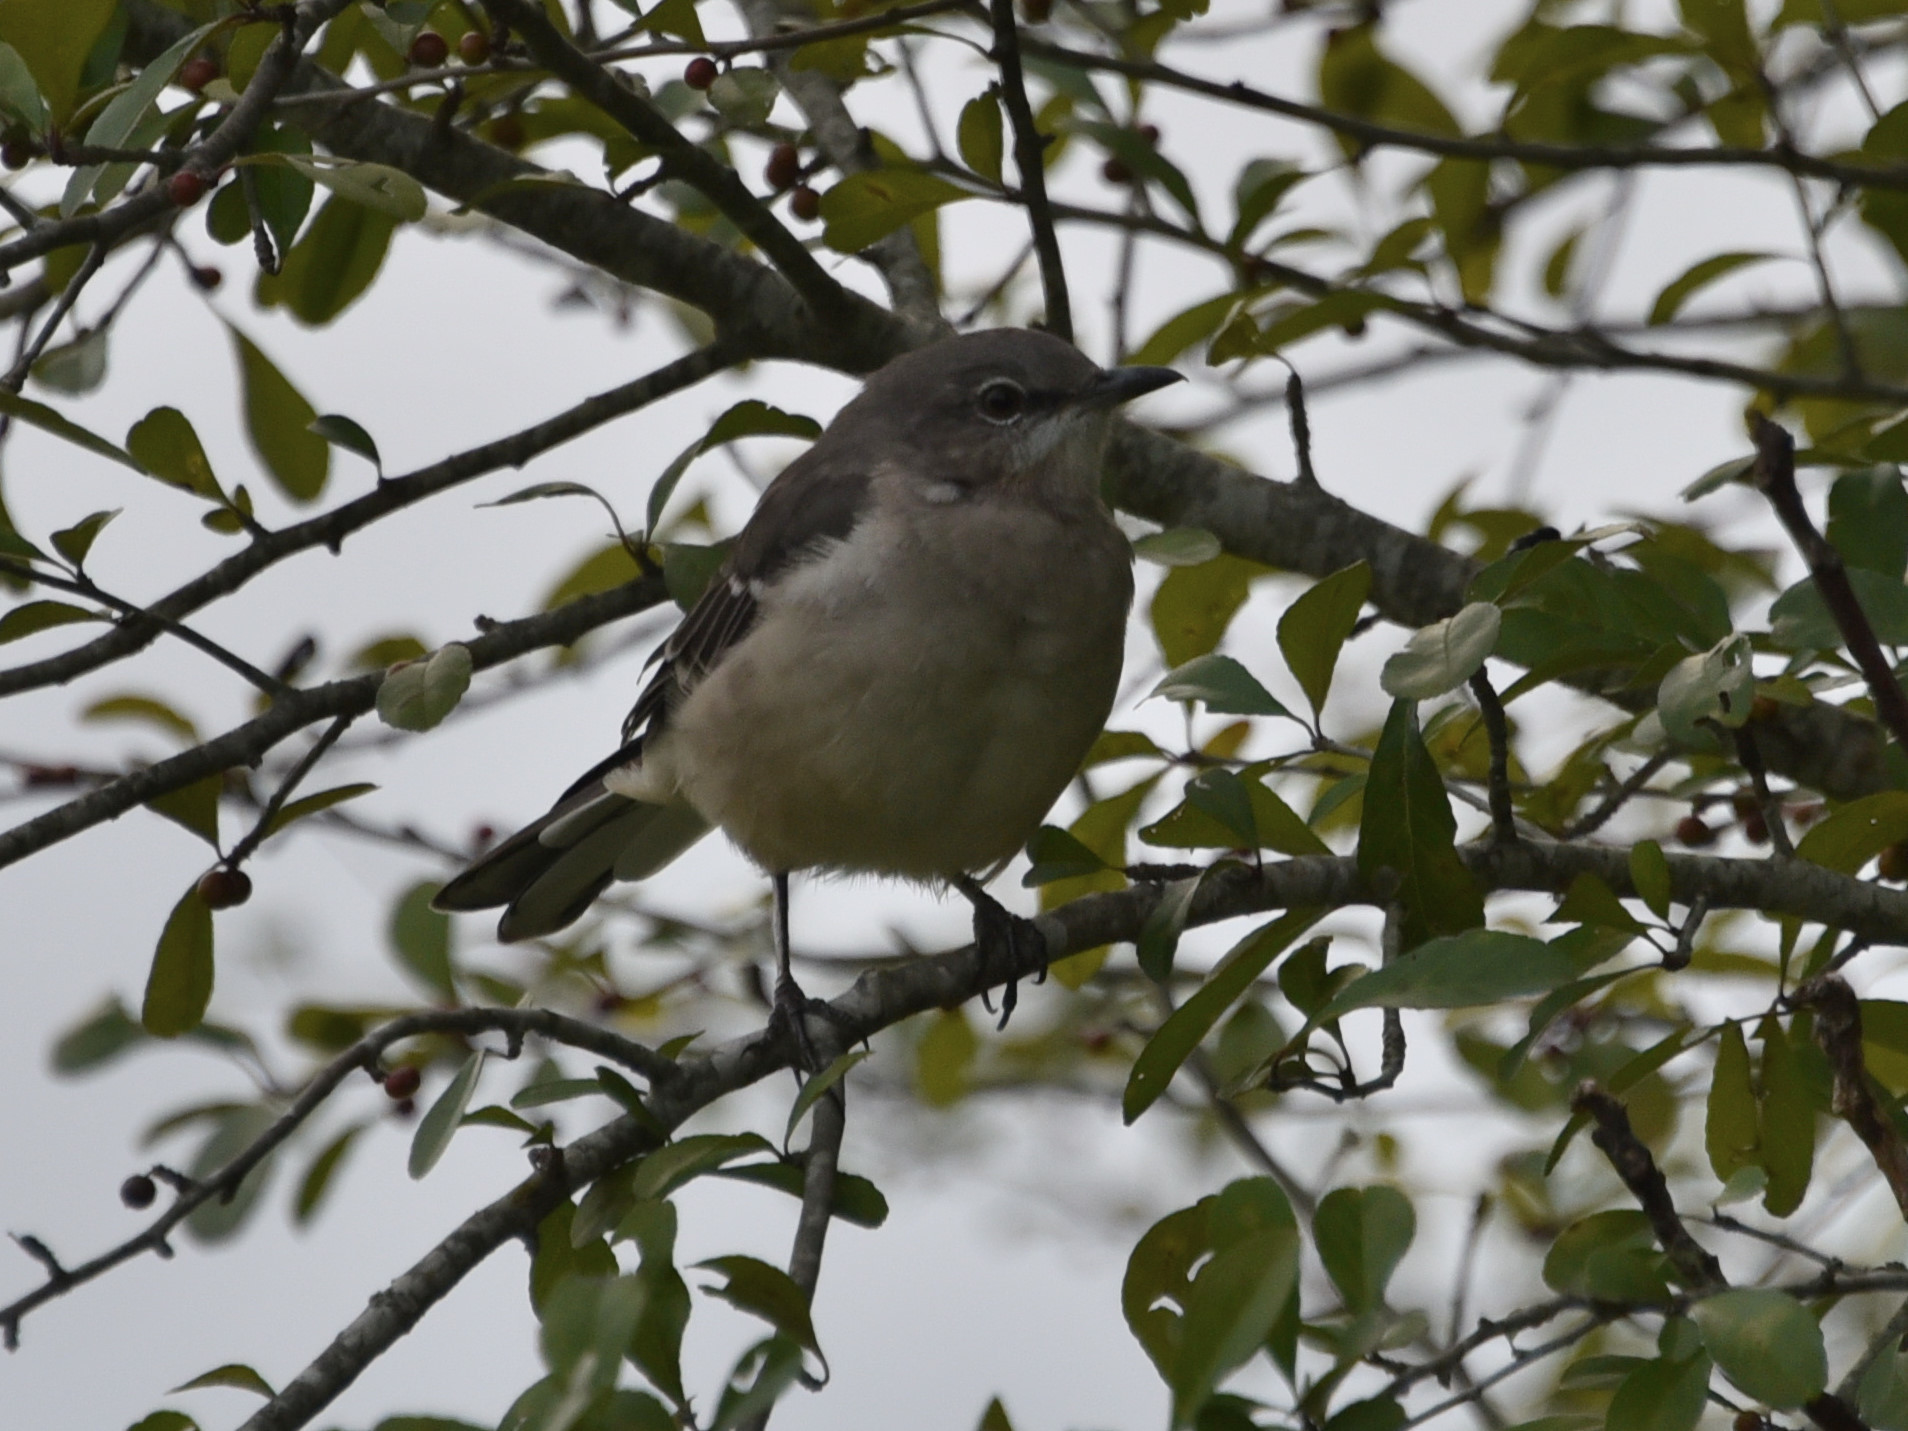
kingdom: Animalia
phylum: Chordata
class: Aves
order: Passeriformes
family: Mimidae
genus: Mimus
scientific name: Mimus polyglottos
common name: Northern mockingbird
